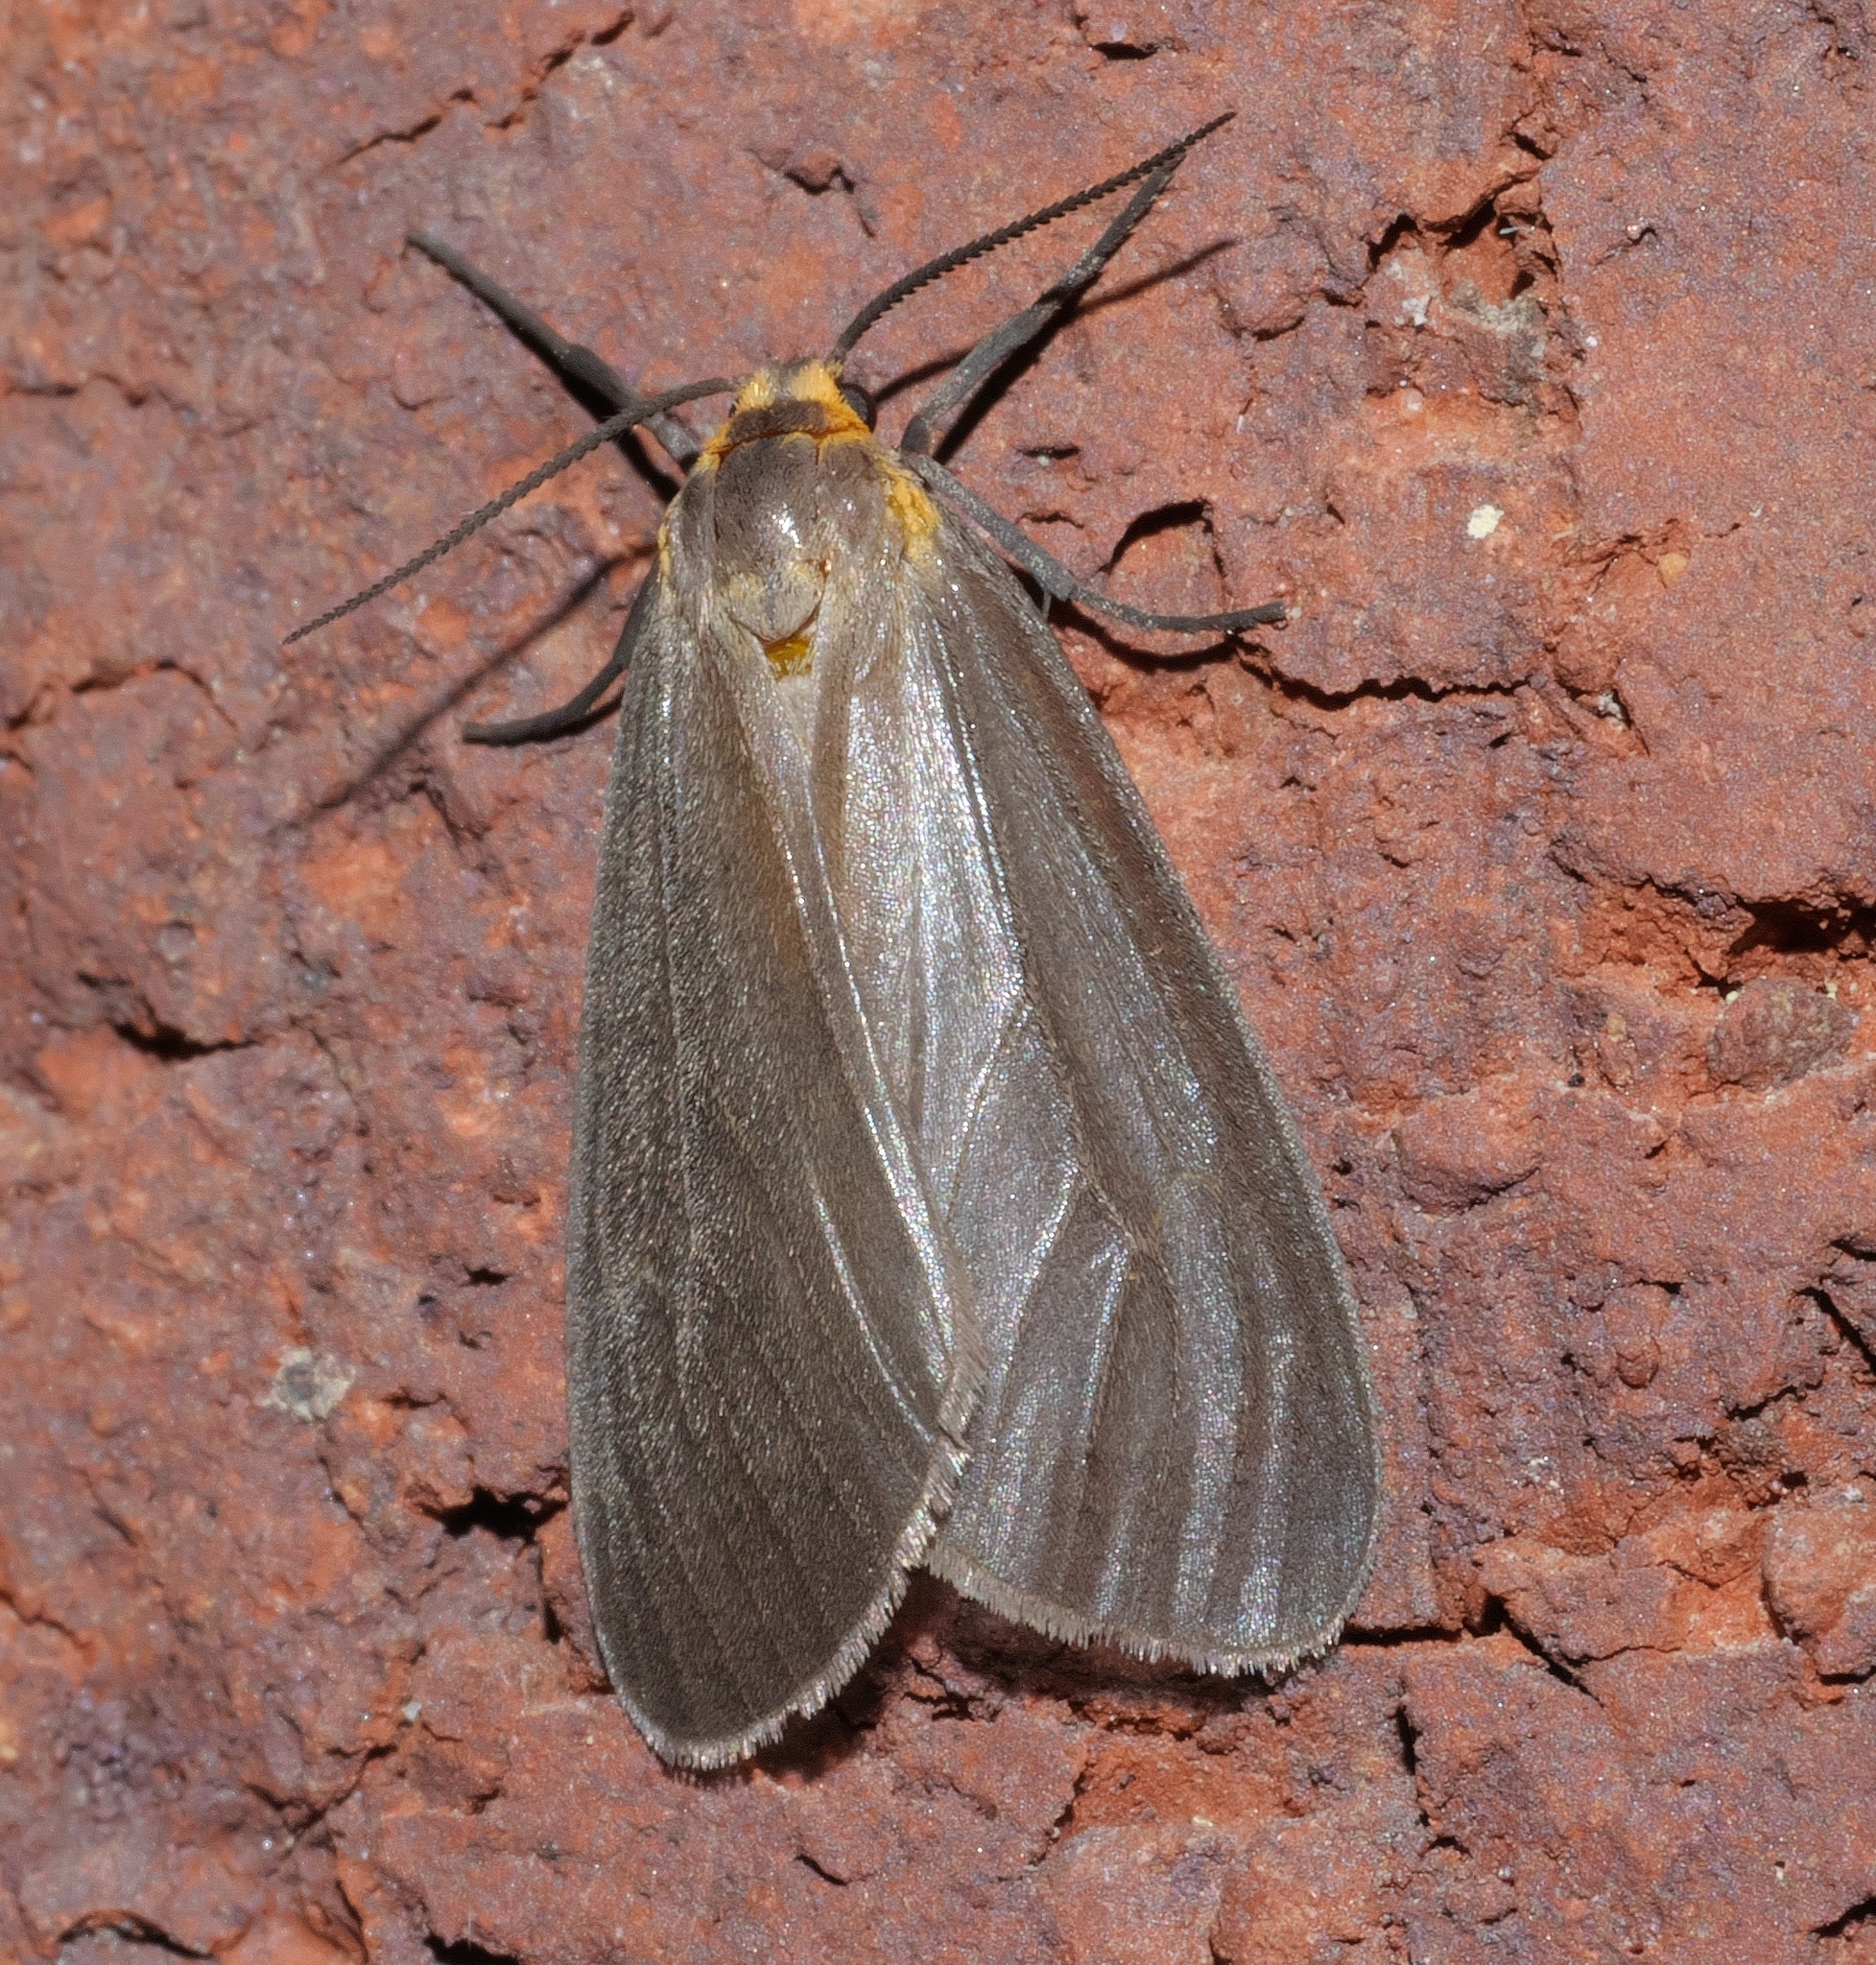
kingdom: Animalia
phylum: Arthropoda
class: Insecta
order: Lepidoptera
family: Erebidae
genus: Pagara
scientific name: Pagara simplex
